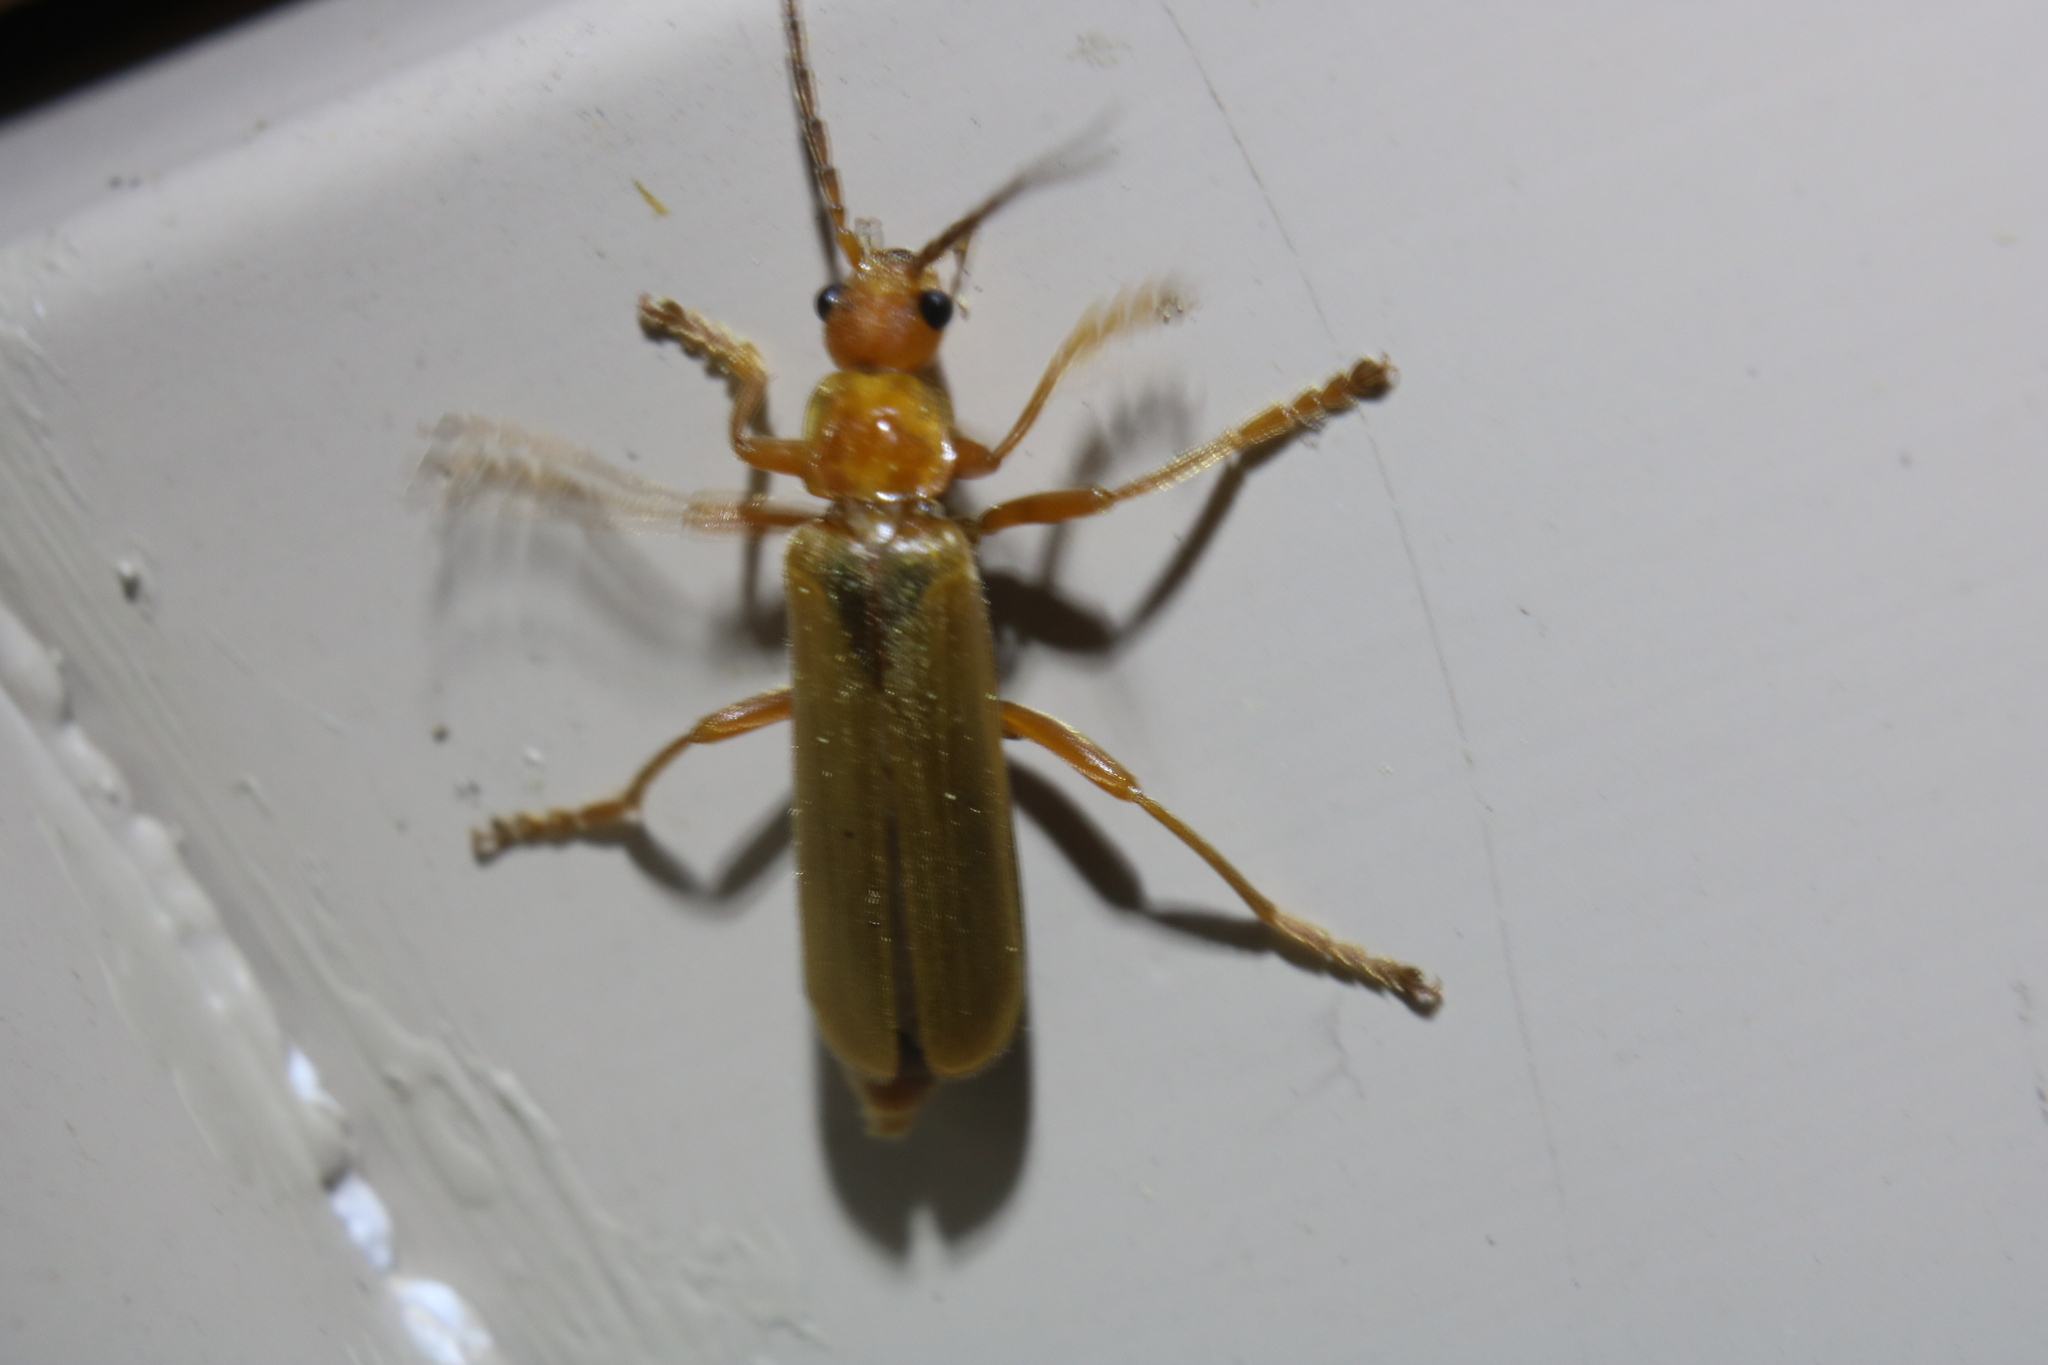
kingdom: Animalia
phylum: Arthropoda
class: Insecta
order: Coleoptera
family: Cantharidae
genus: Cantharis
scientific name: Cantharis rufa
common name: Red-spotted soldier beetle
